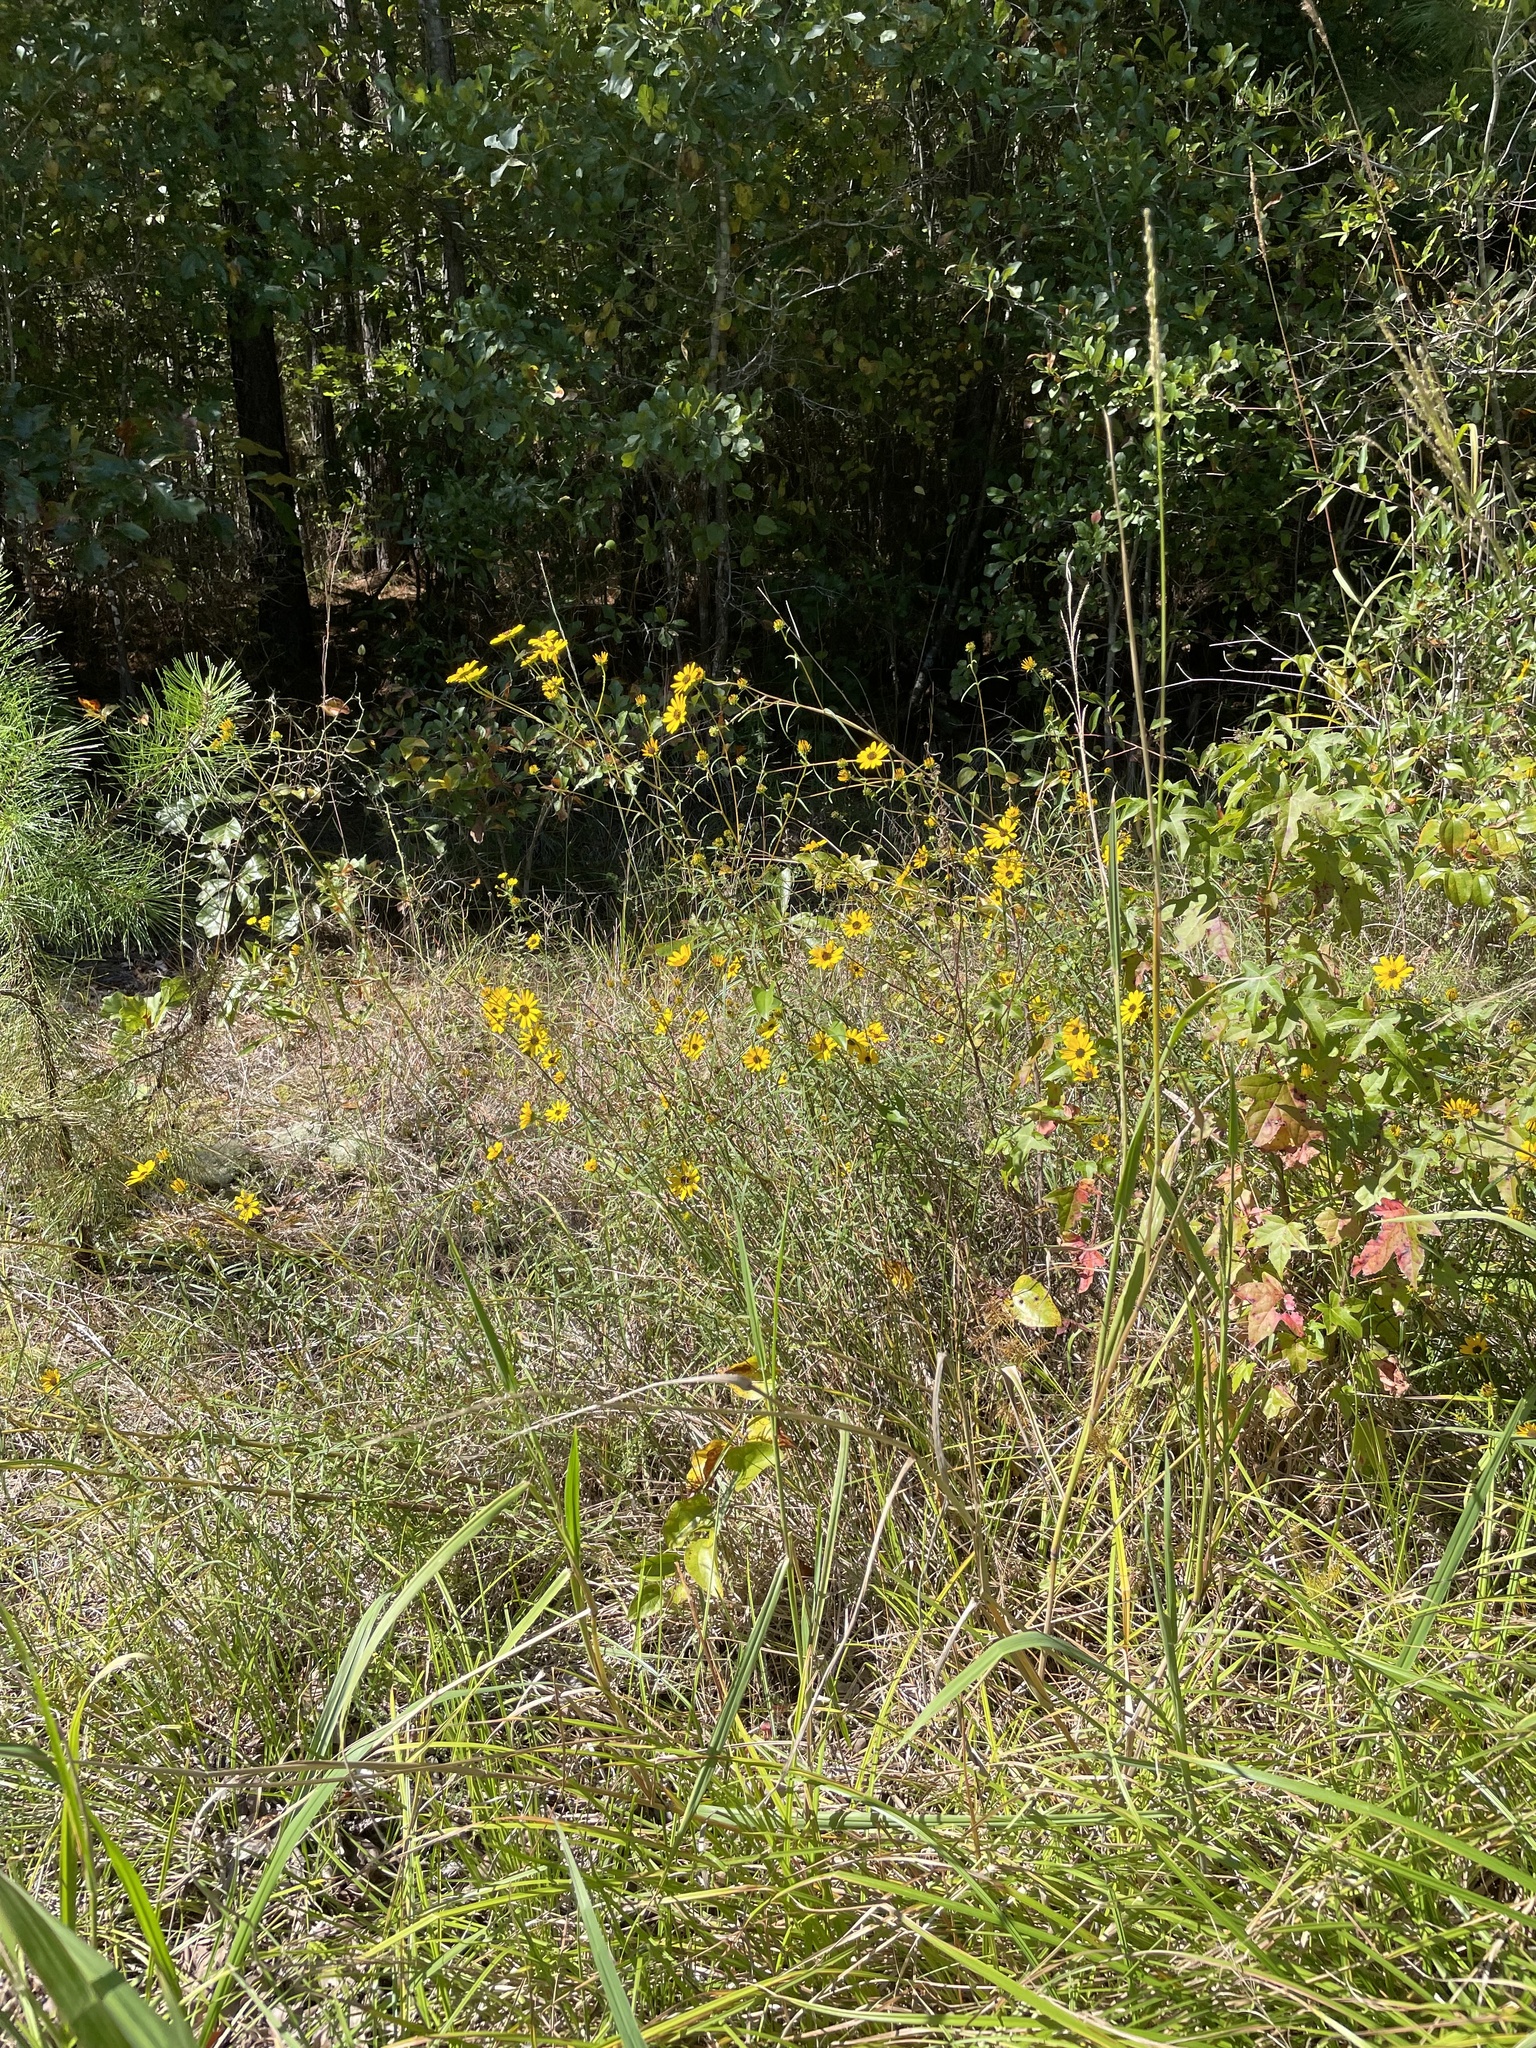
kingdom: Plantae
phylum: Tracheophyta
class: Magnoliopsida
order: Asterales
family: Asteraceae
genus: Helianthus
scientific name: Helianthus angustifolius
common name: Swamp sunflower
